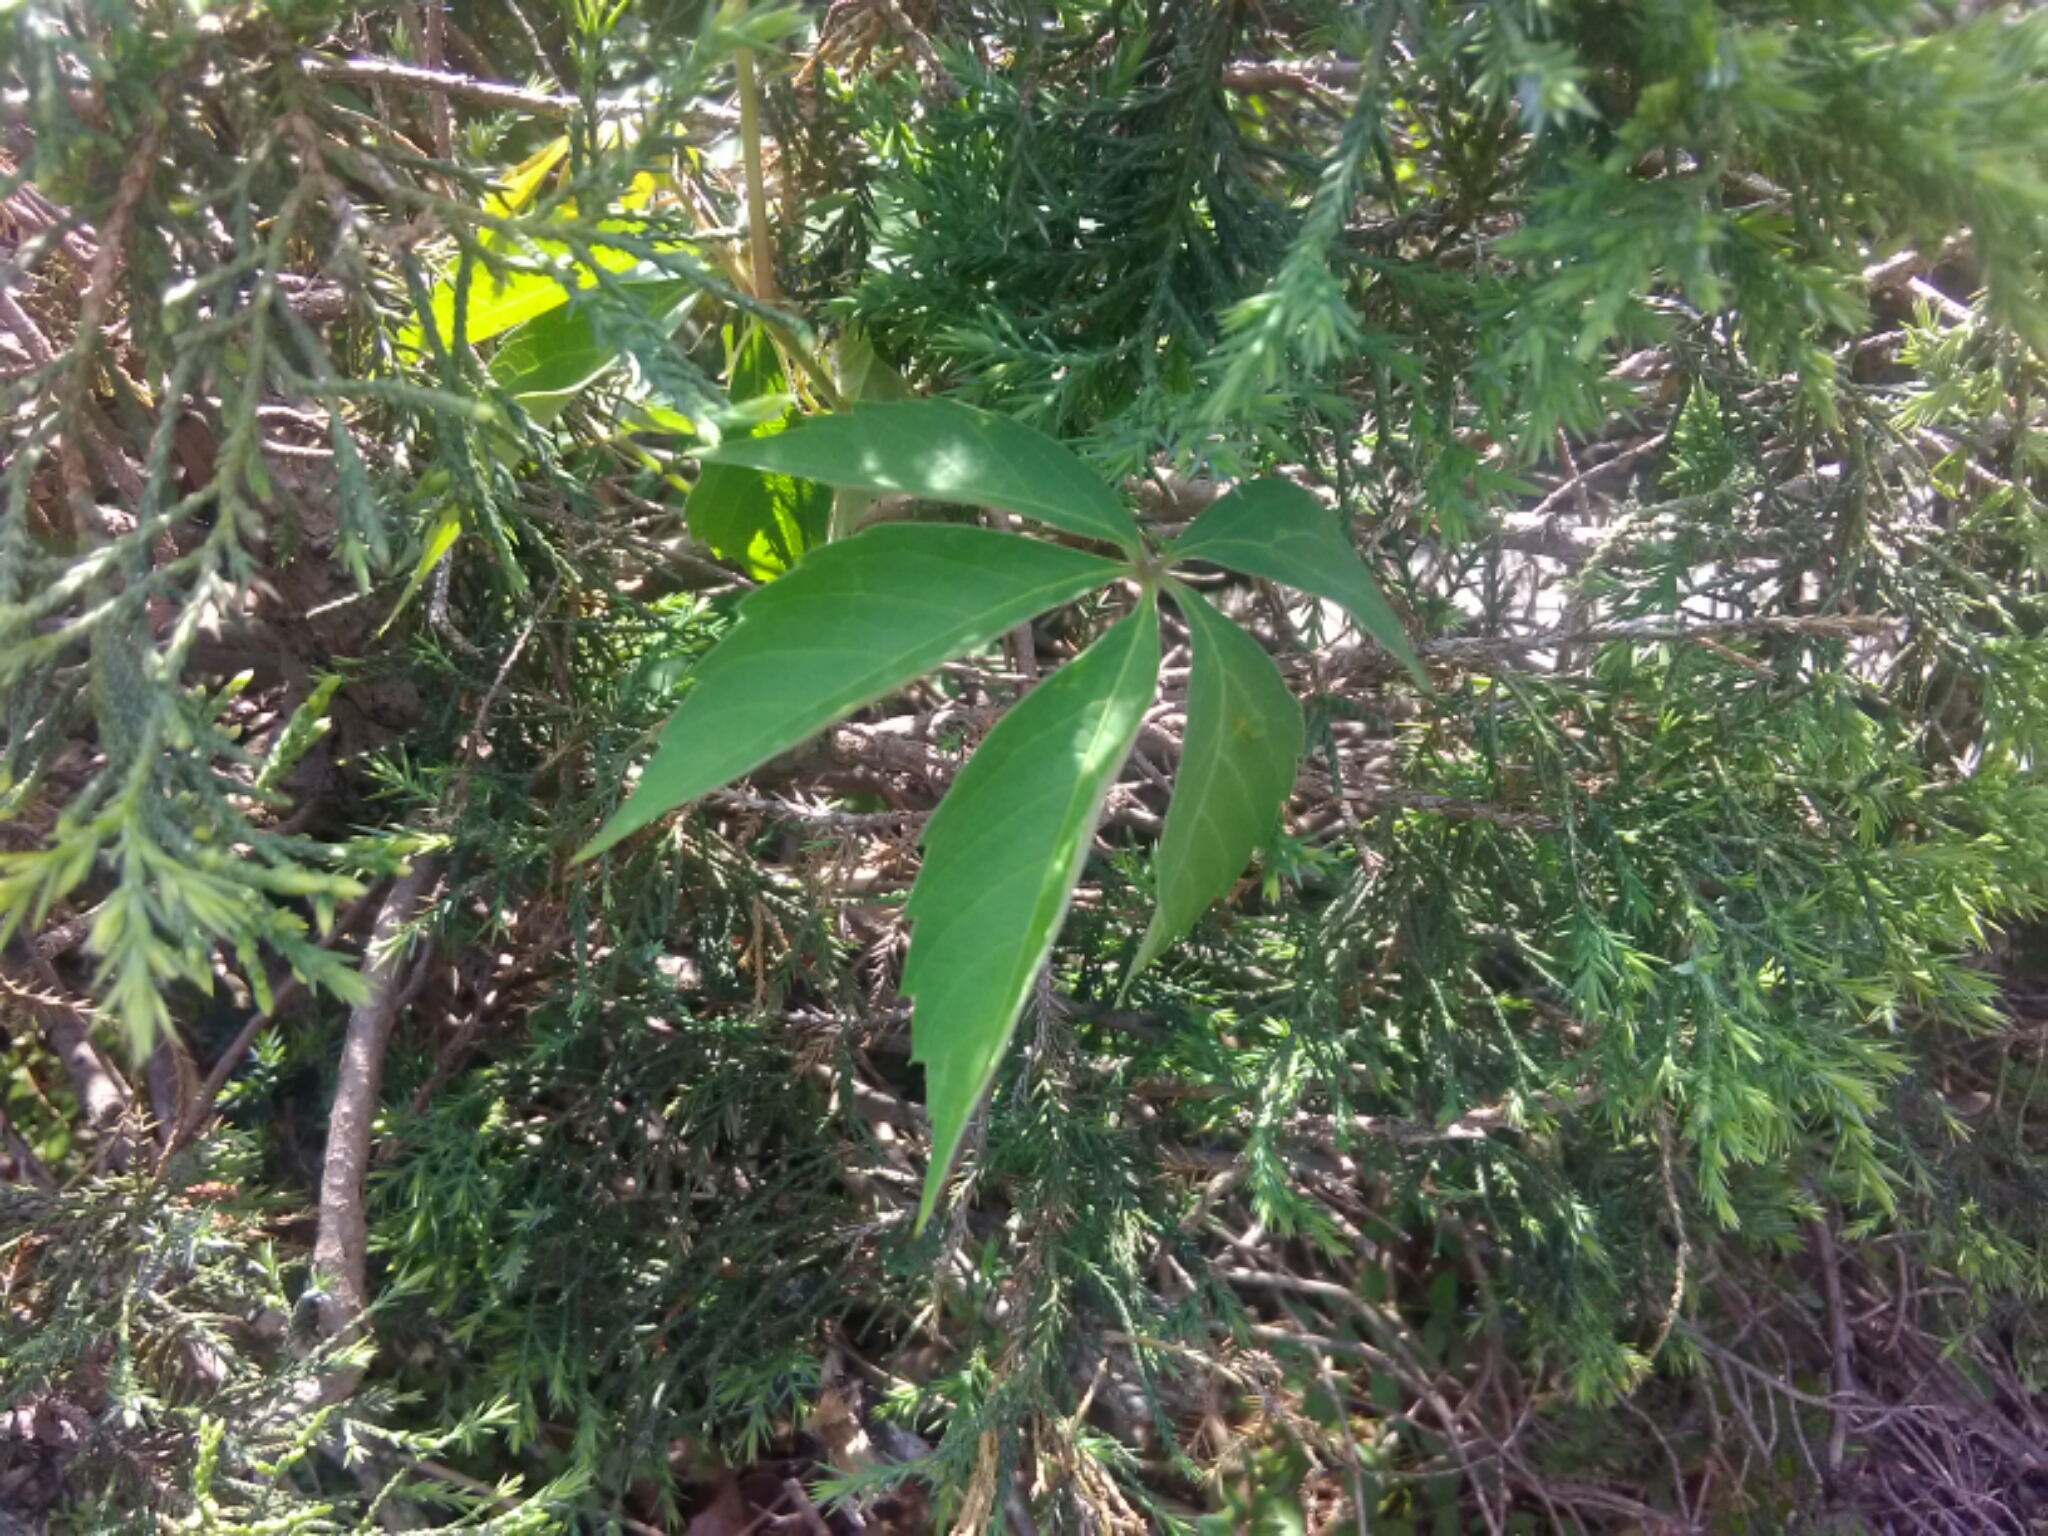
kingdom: Plantae
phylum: Tracheophyta
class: Magnoliopsida
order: Vitales
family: Vitaceae
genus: Parthenocissus
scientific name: Parthenocissus quinquefolia
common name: Virginia-creeper
